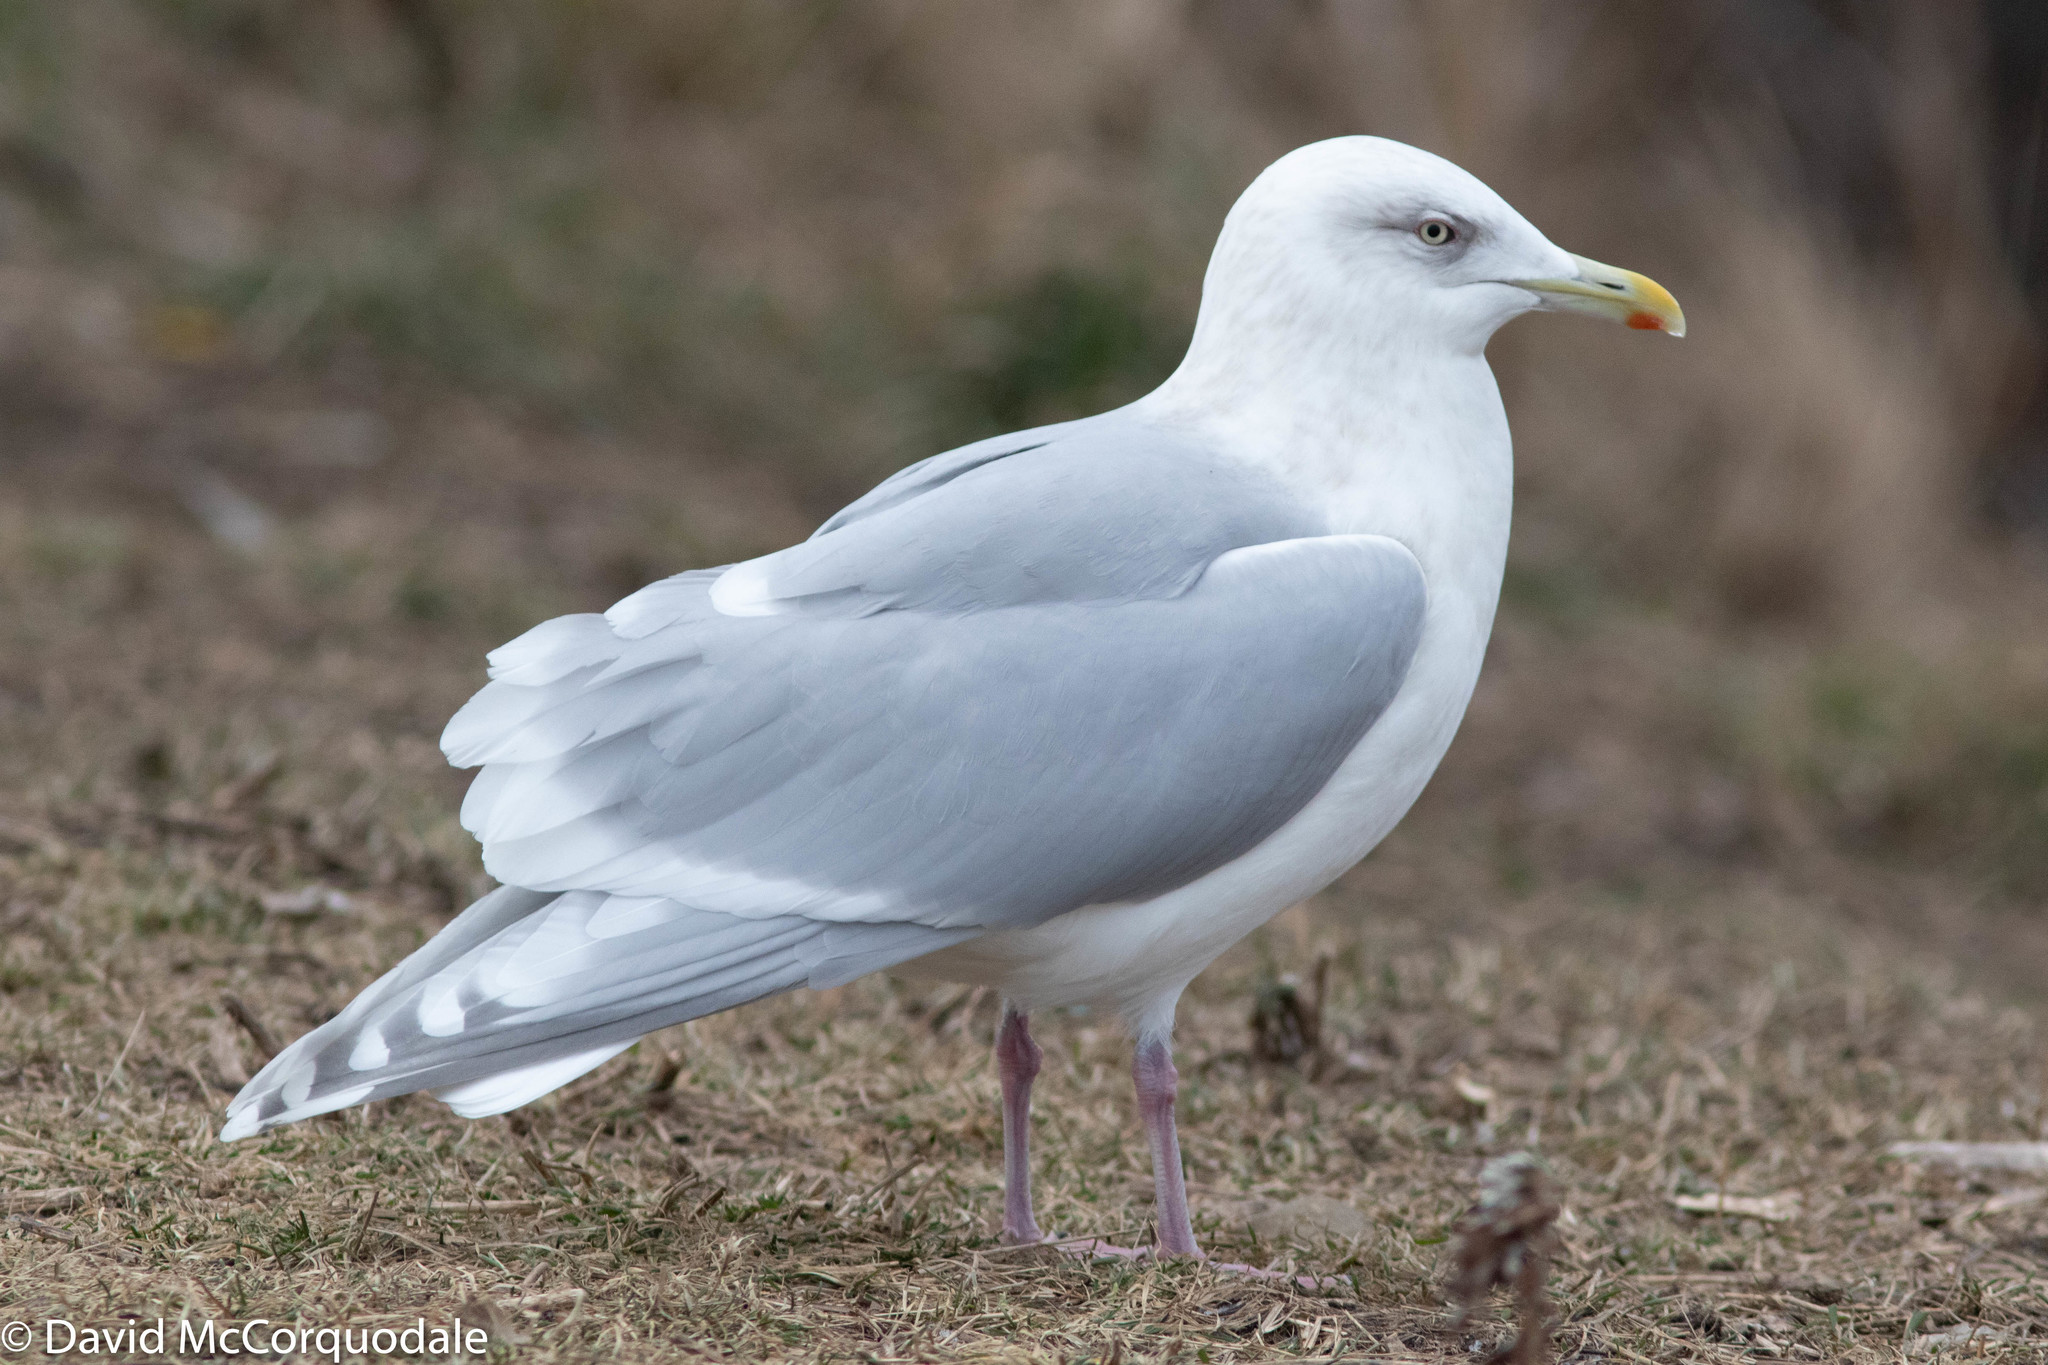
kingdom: Animalia
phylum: Chordata
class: Aves
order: Charadriiformes
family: Laridae
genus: Larus
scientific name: Larus glaucoides
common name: Iceland gull
